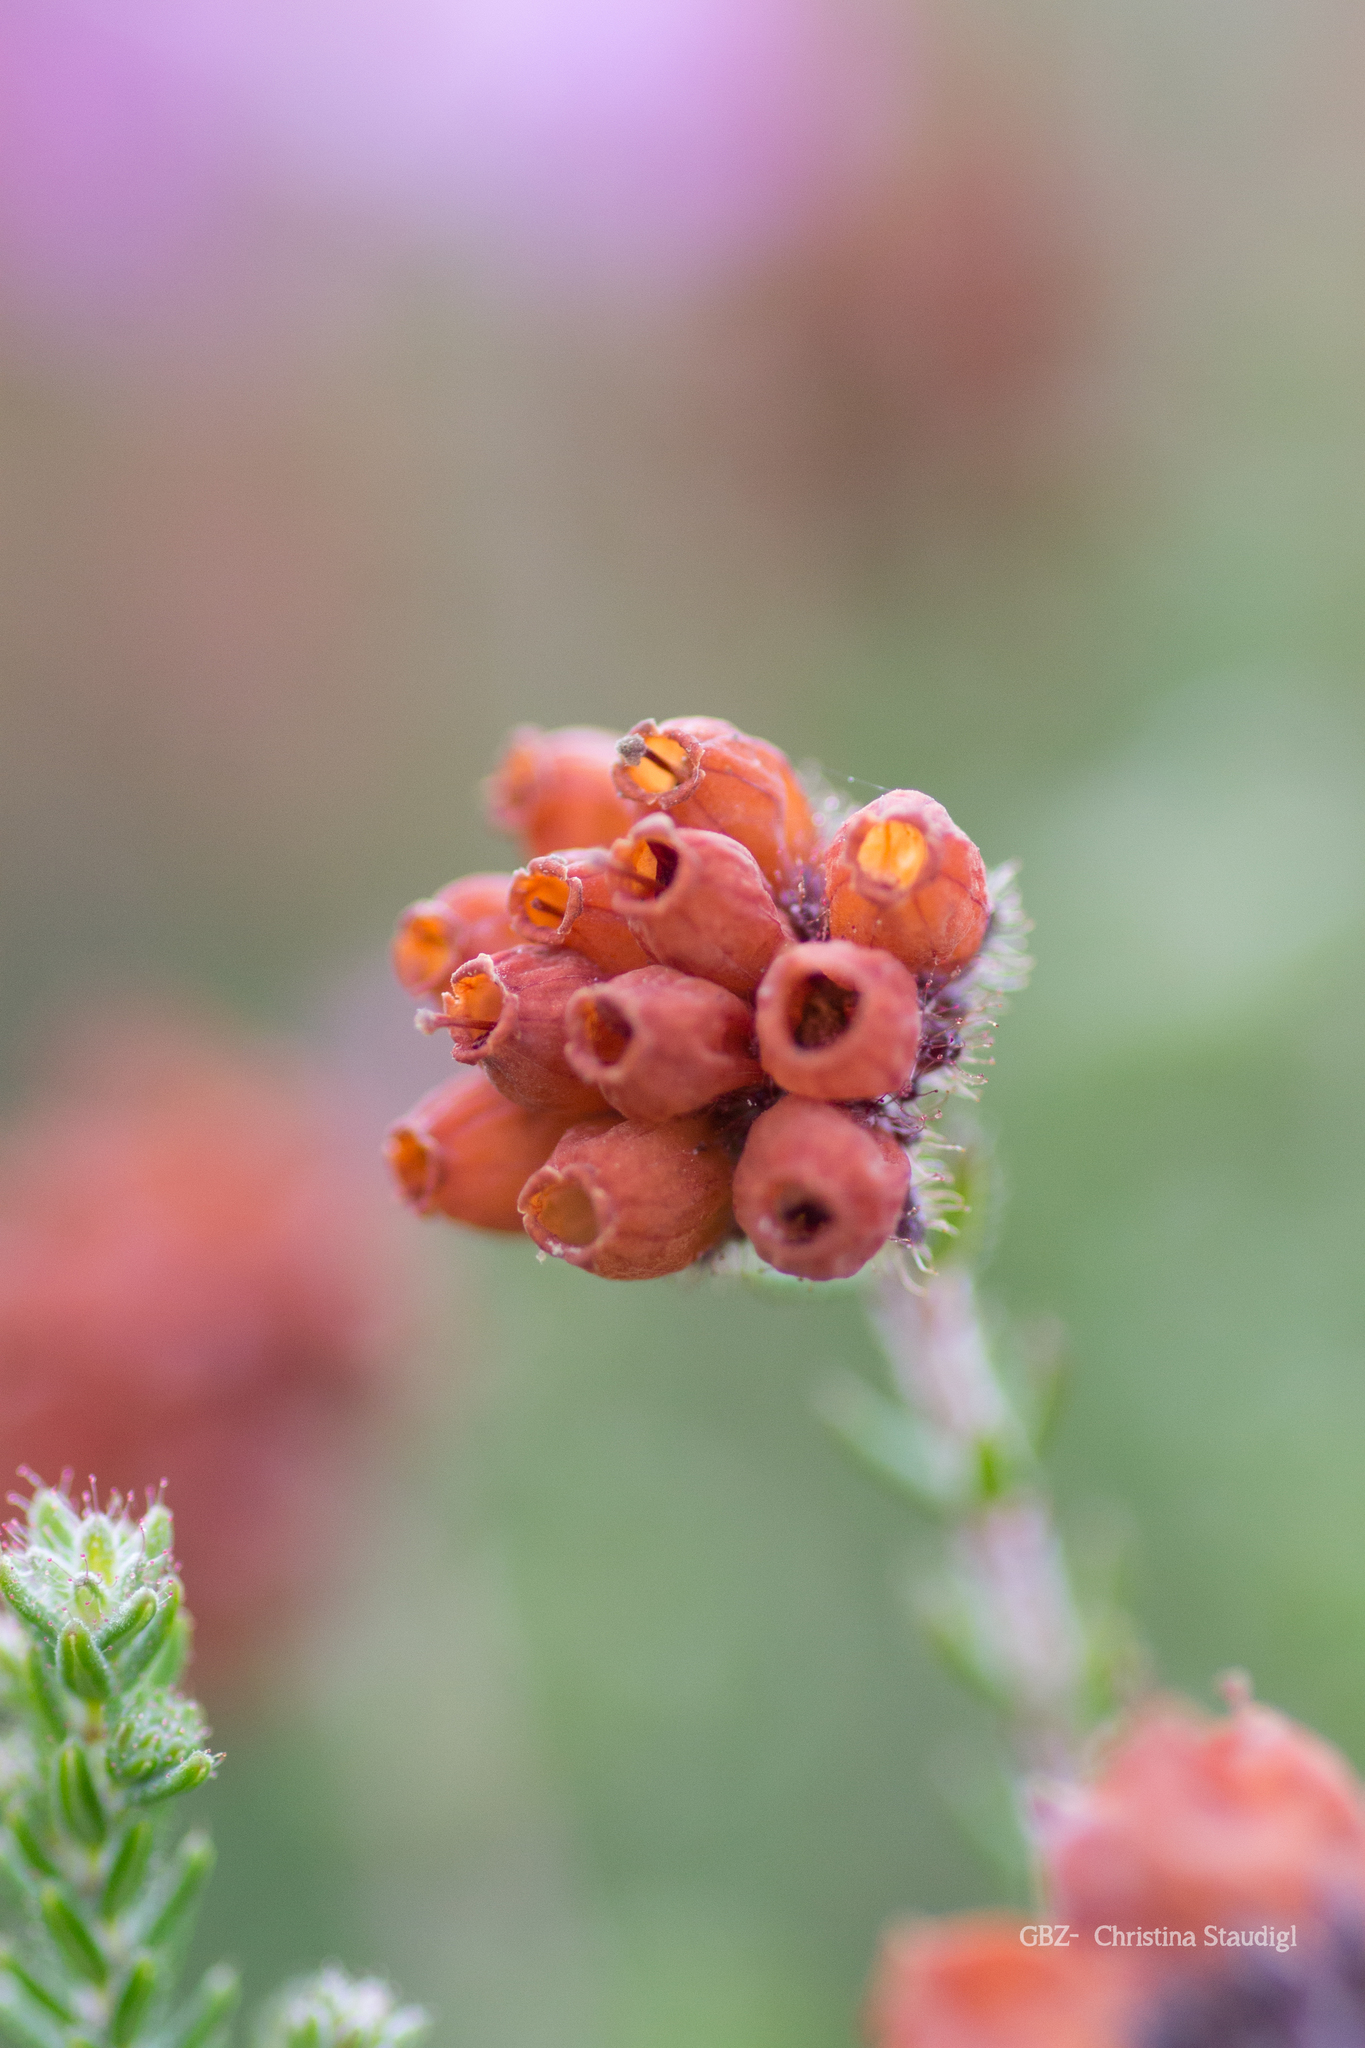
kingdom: Plantae
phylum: Tracheophyta
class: Magnoliopsida
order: Ericales
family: Ericaceae
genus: Erica
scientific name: Erica tetralix
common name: Cross-leaved heath
